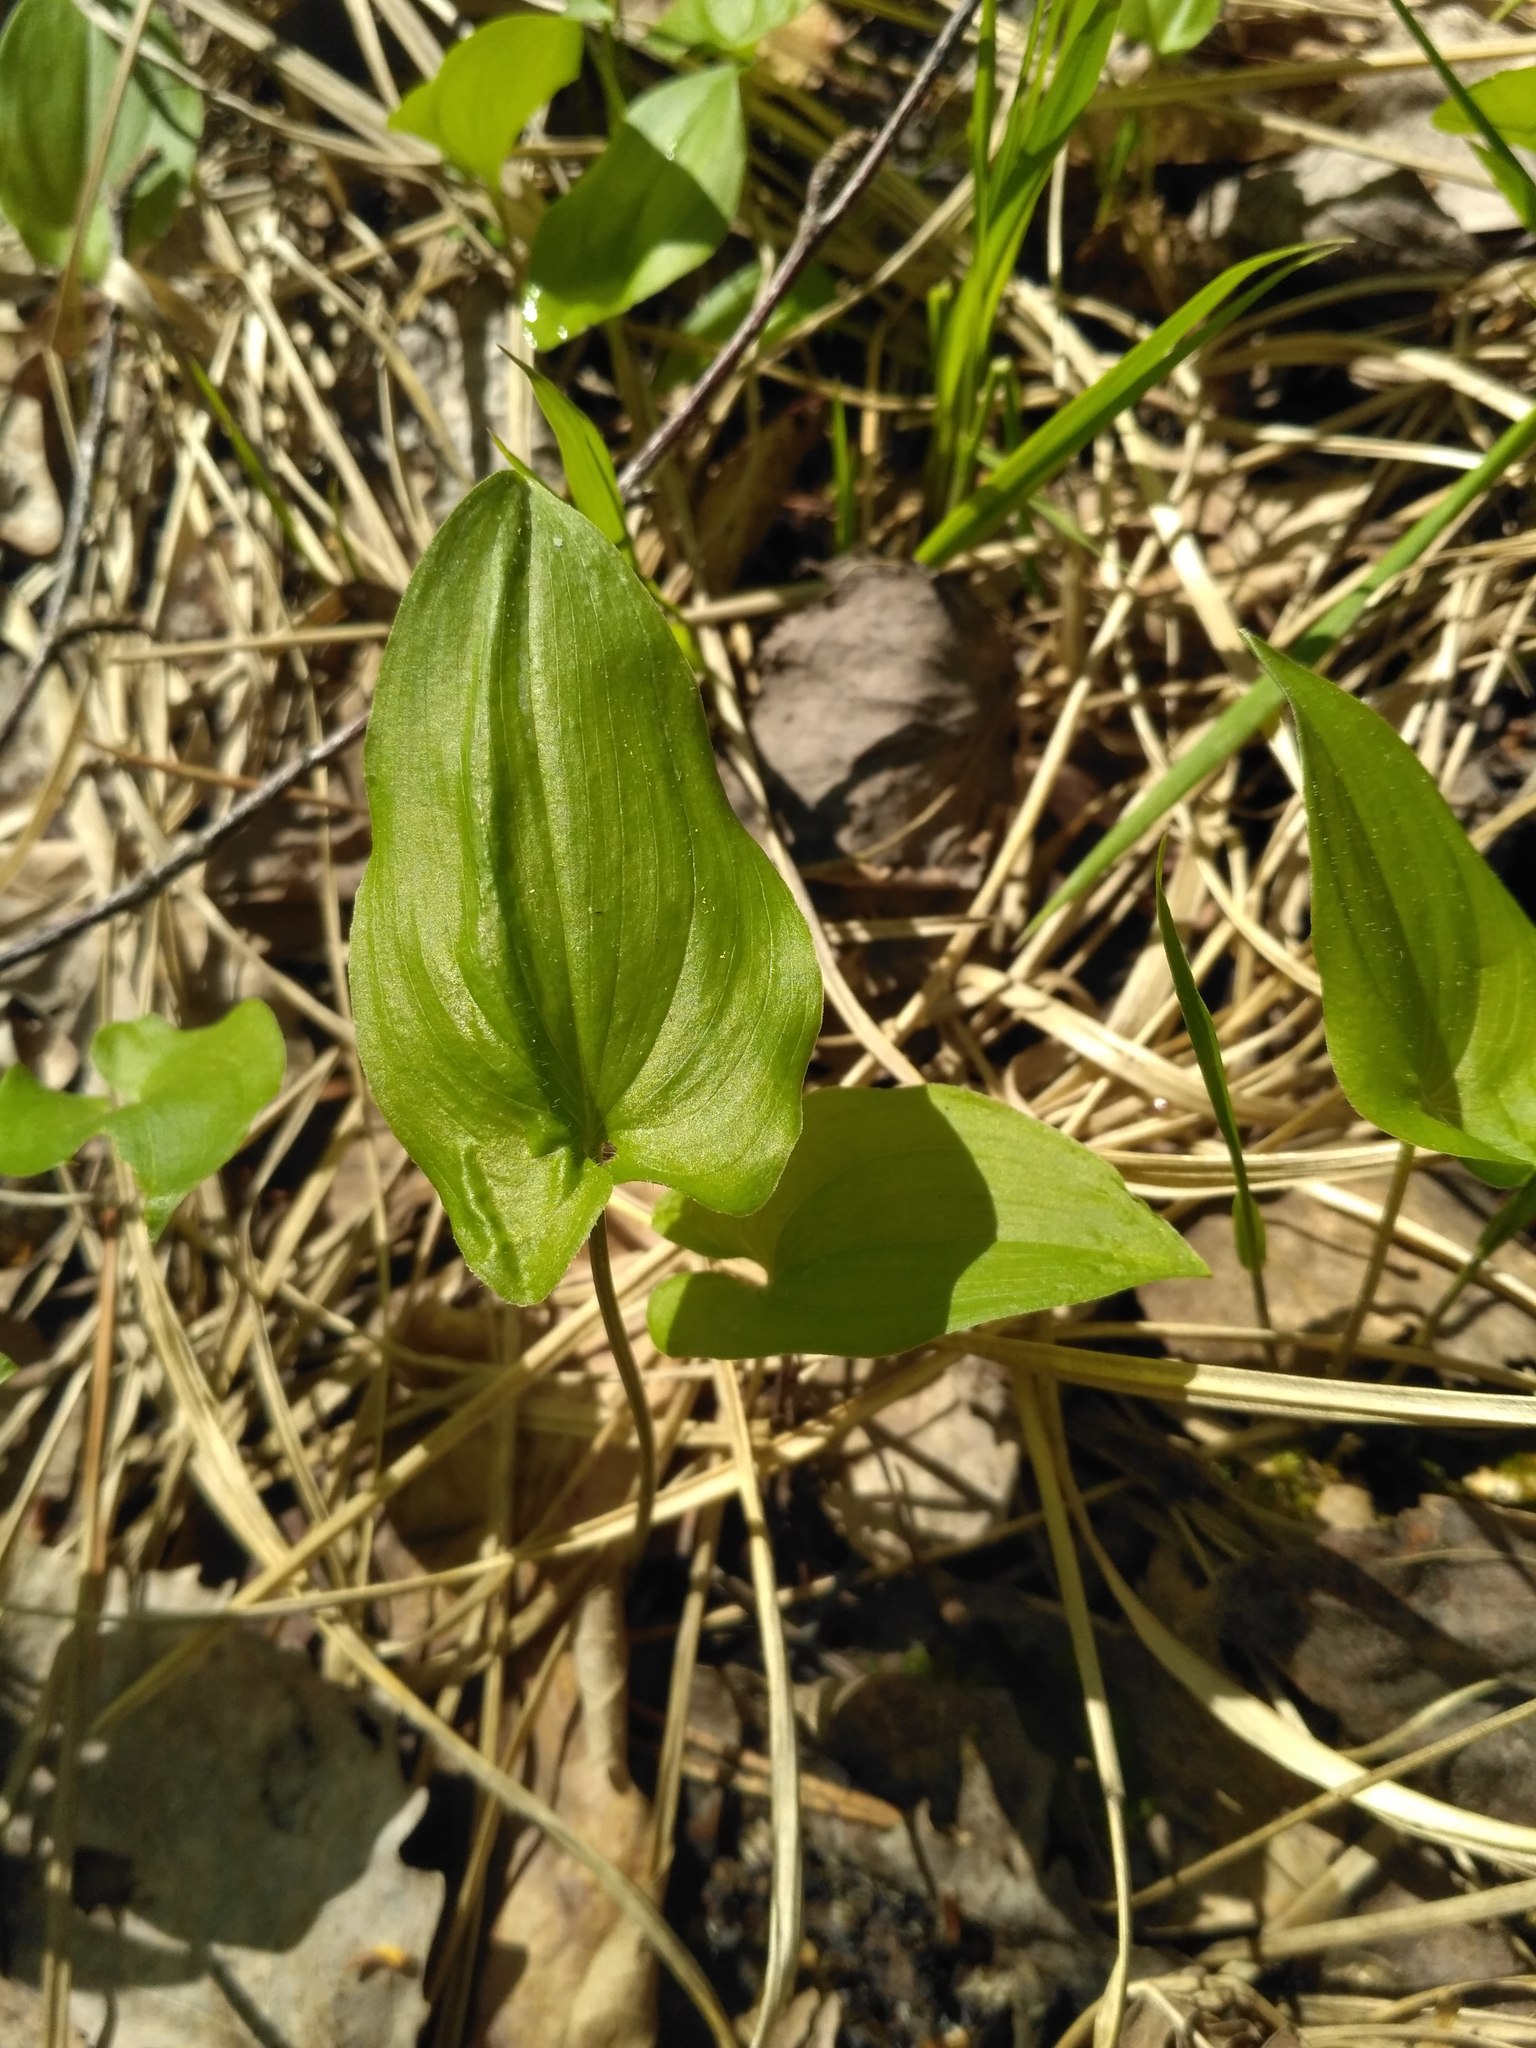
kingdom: Plantae
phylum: Tracheophyta
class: Liliopsida
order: Asparagales
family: Asparagaceae
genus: Maianthemum
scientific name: Maianthemum bifolium
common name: May lily
